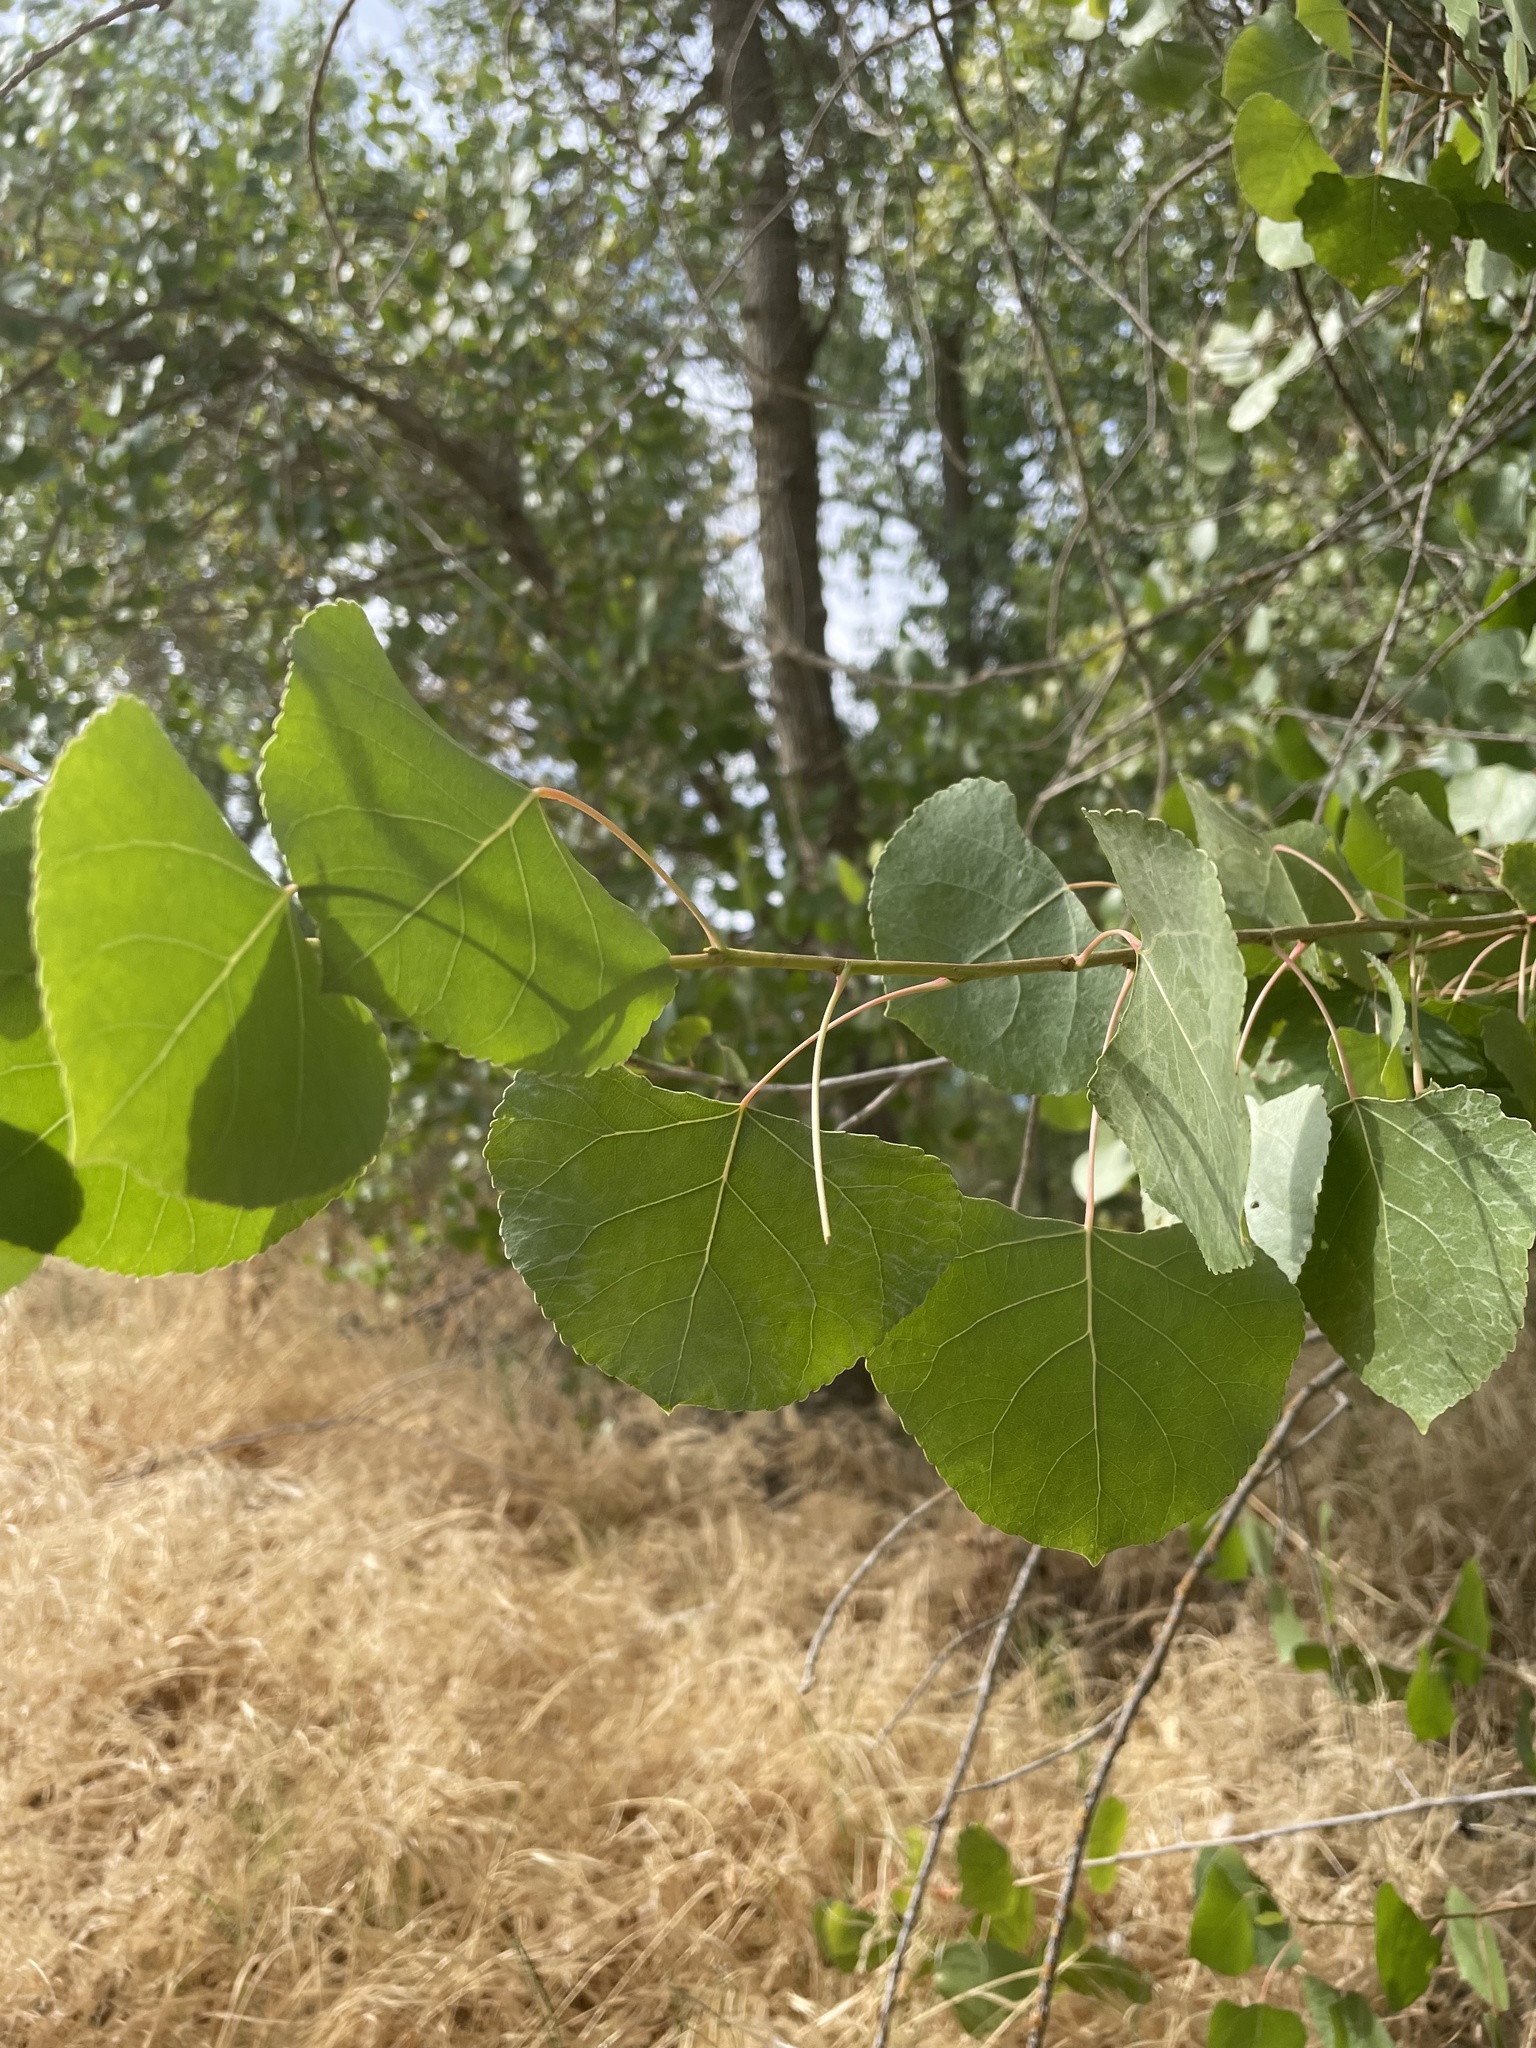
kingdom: Plantae
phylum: Tracheophyta
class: Magnoliopsida
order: Malpighiales
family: Salicaceae
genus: Populus
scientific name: Populus fremontii
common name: Fremont's cottonwood
